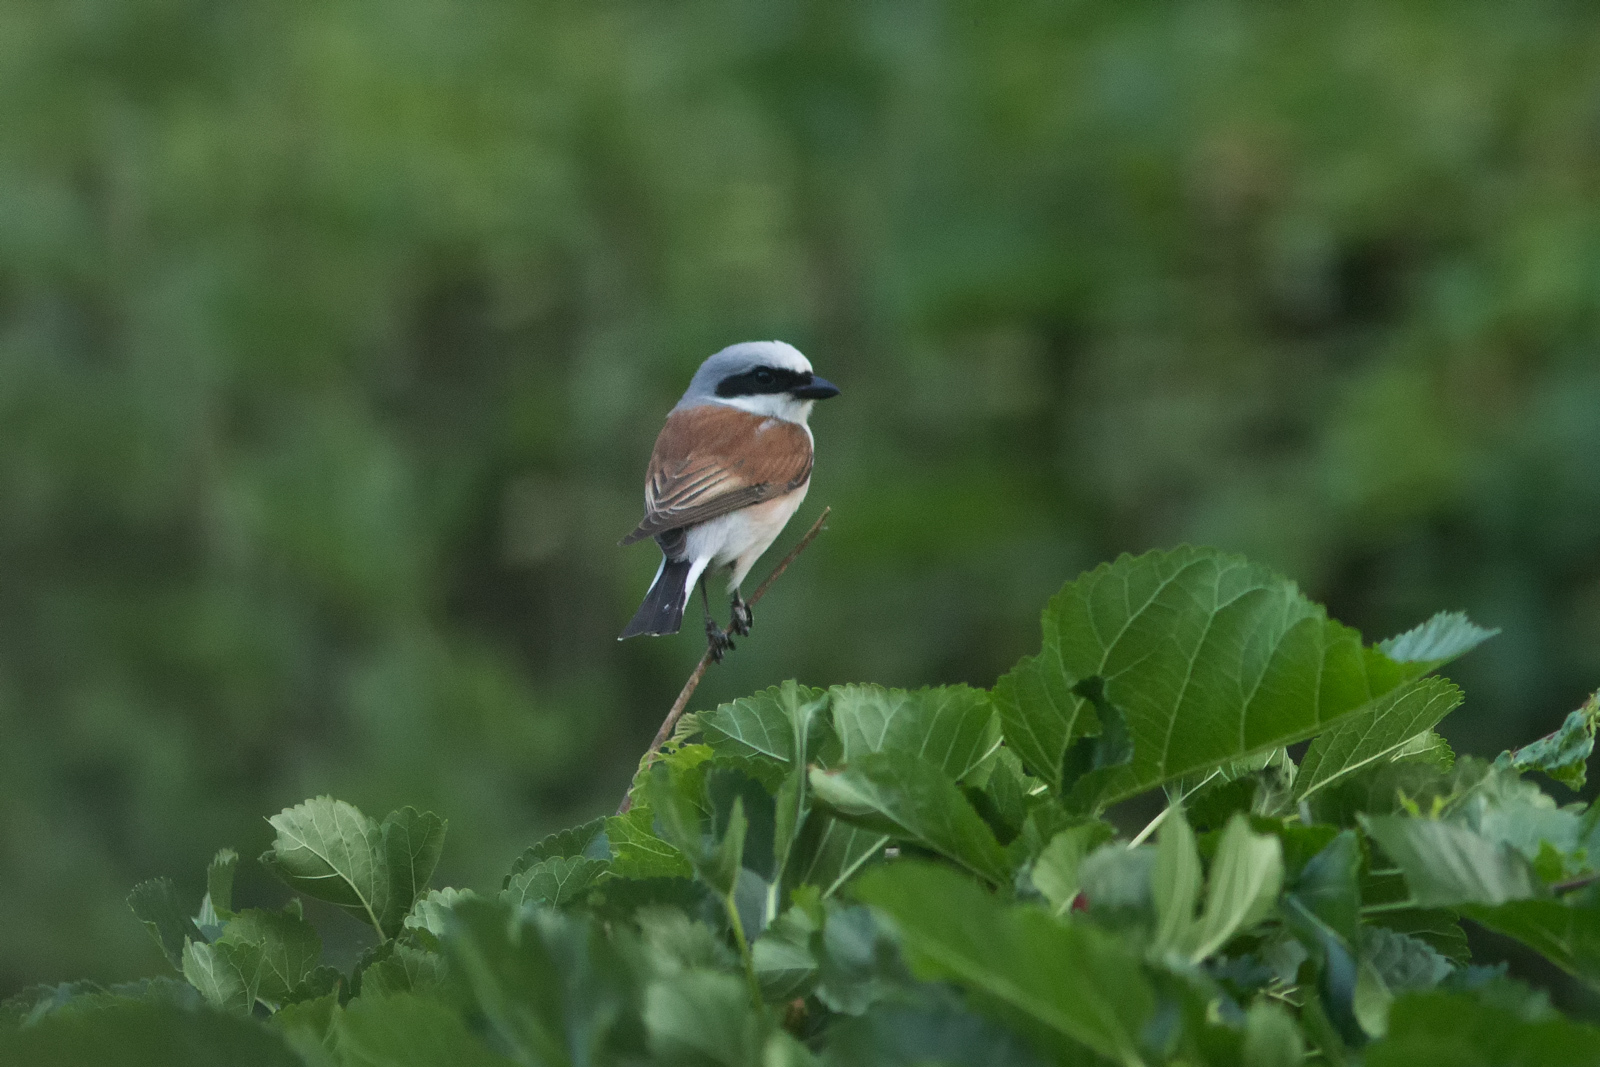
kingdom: Animalia
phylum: Chordata
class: Aves
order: Passeriformes
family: Laniidae
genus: Lanius
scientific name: Lanius collurio
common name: Red-backed shrike
